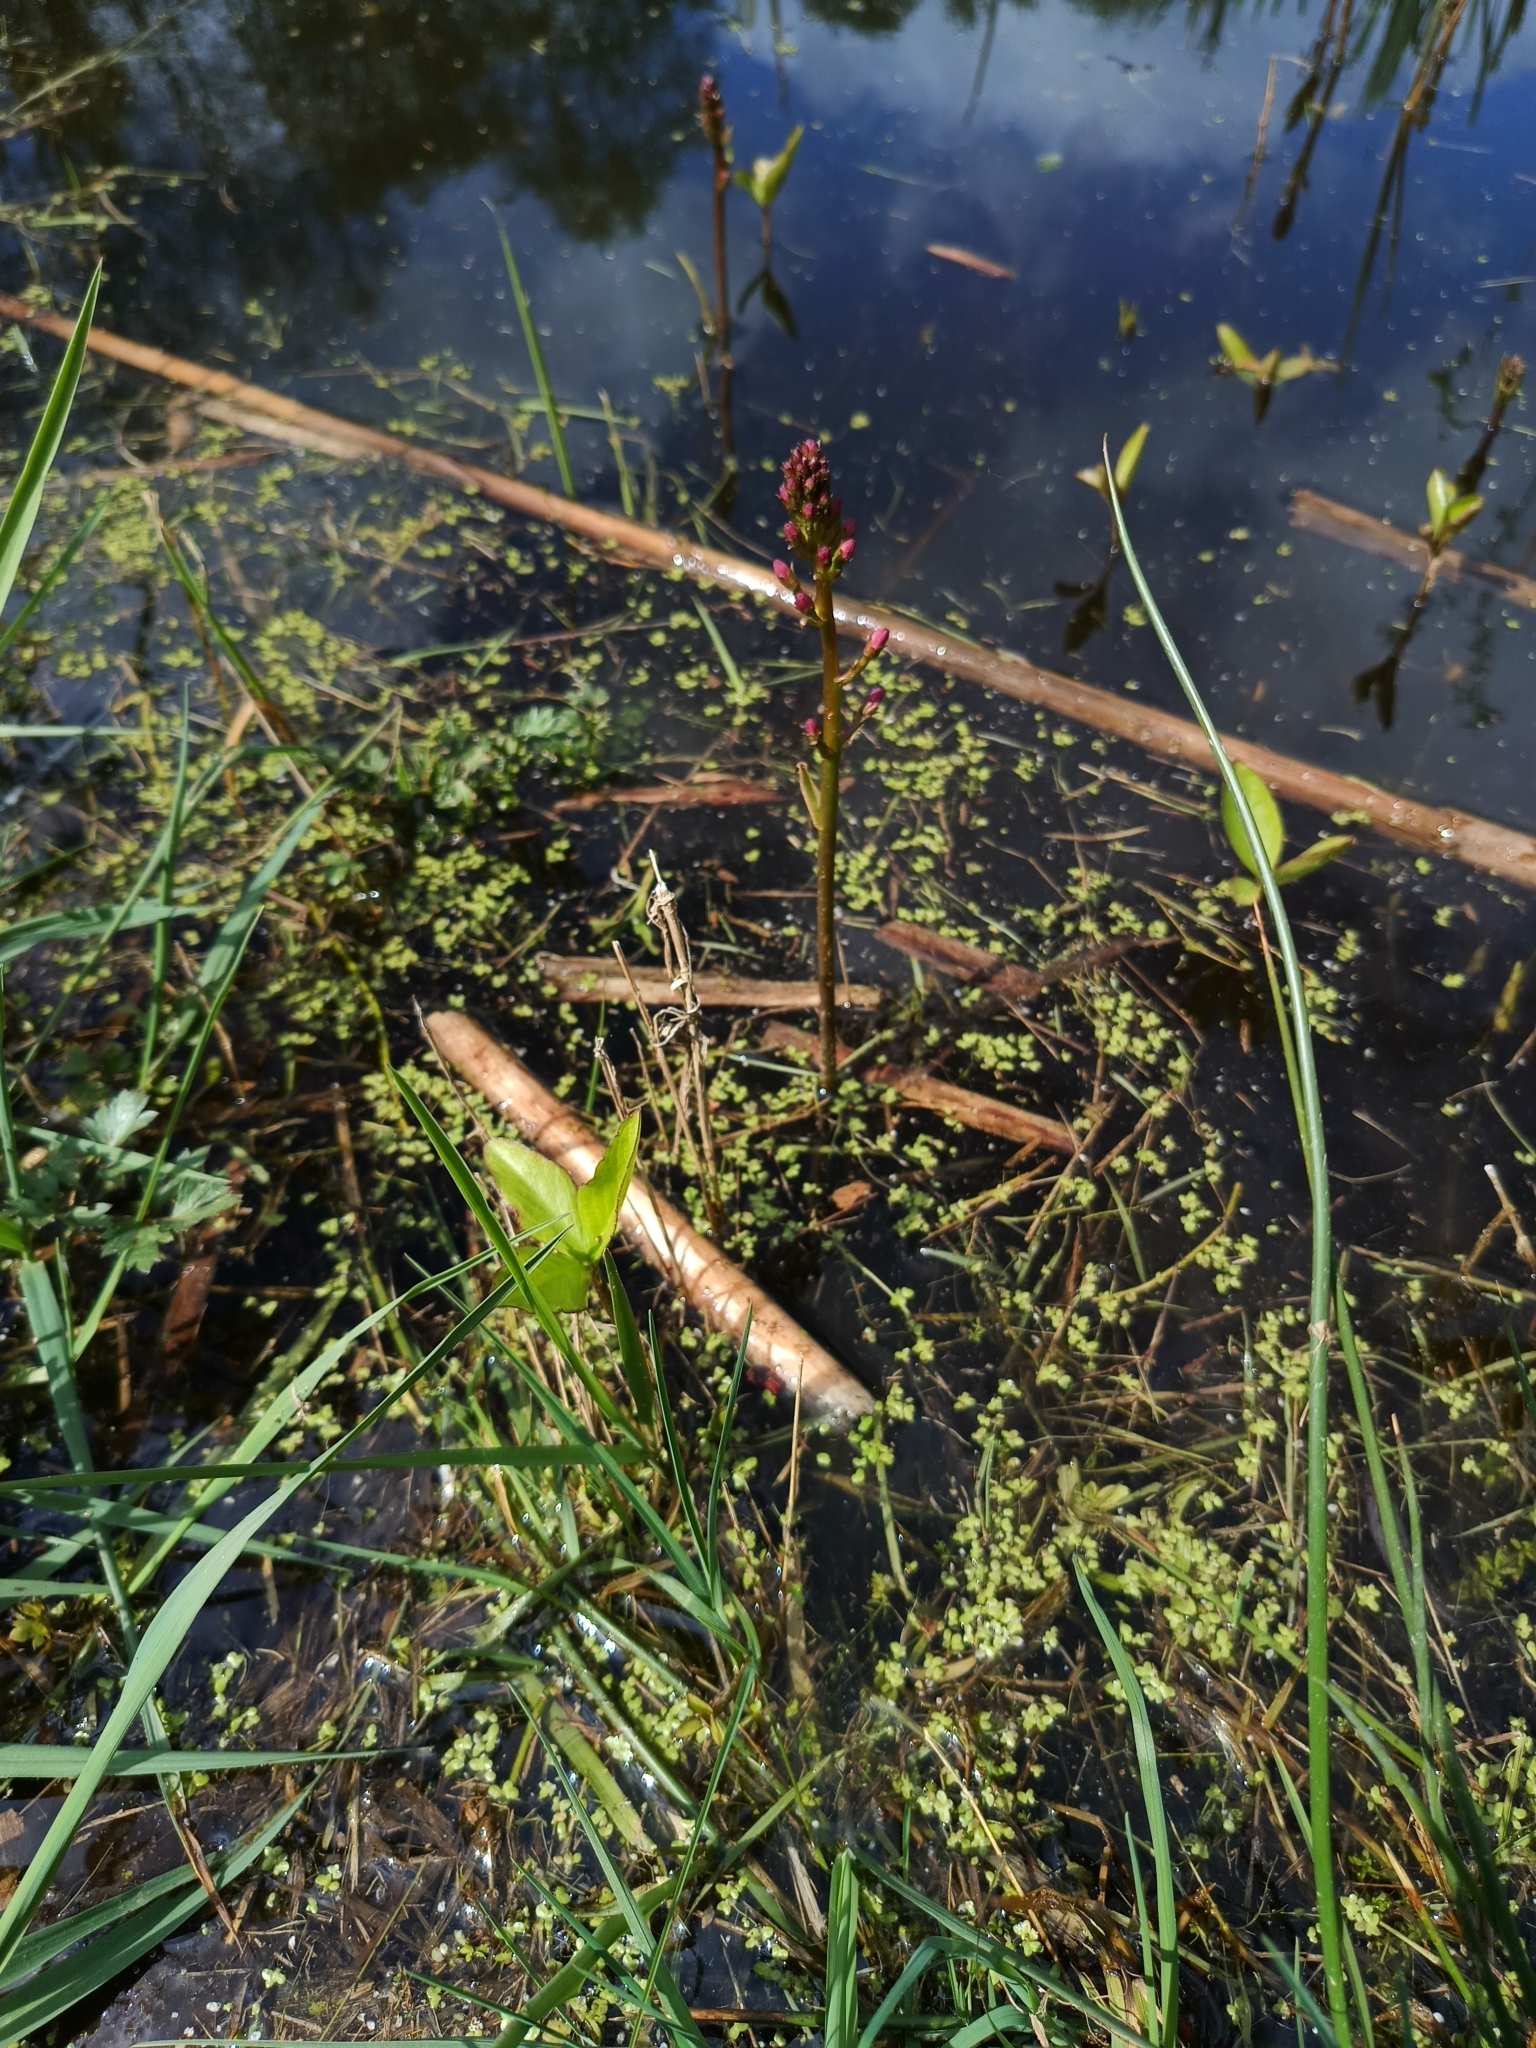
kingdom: Plantae
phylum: Tracheophyta
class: Magnoliopsida
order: Asterales
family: Menyanthaceae
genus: Menyanthes
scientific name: Menyanthes trifoliata
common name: Bogbean
